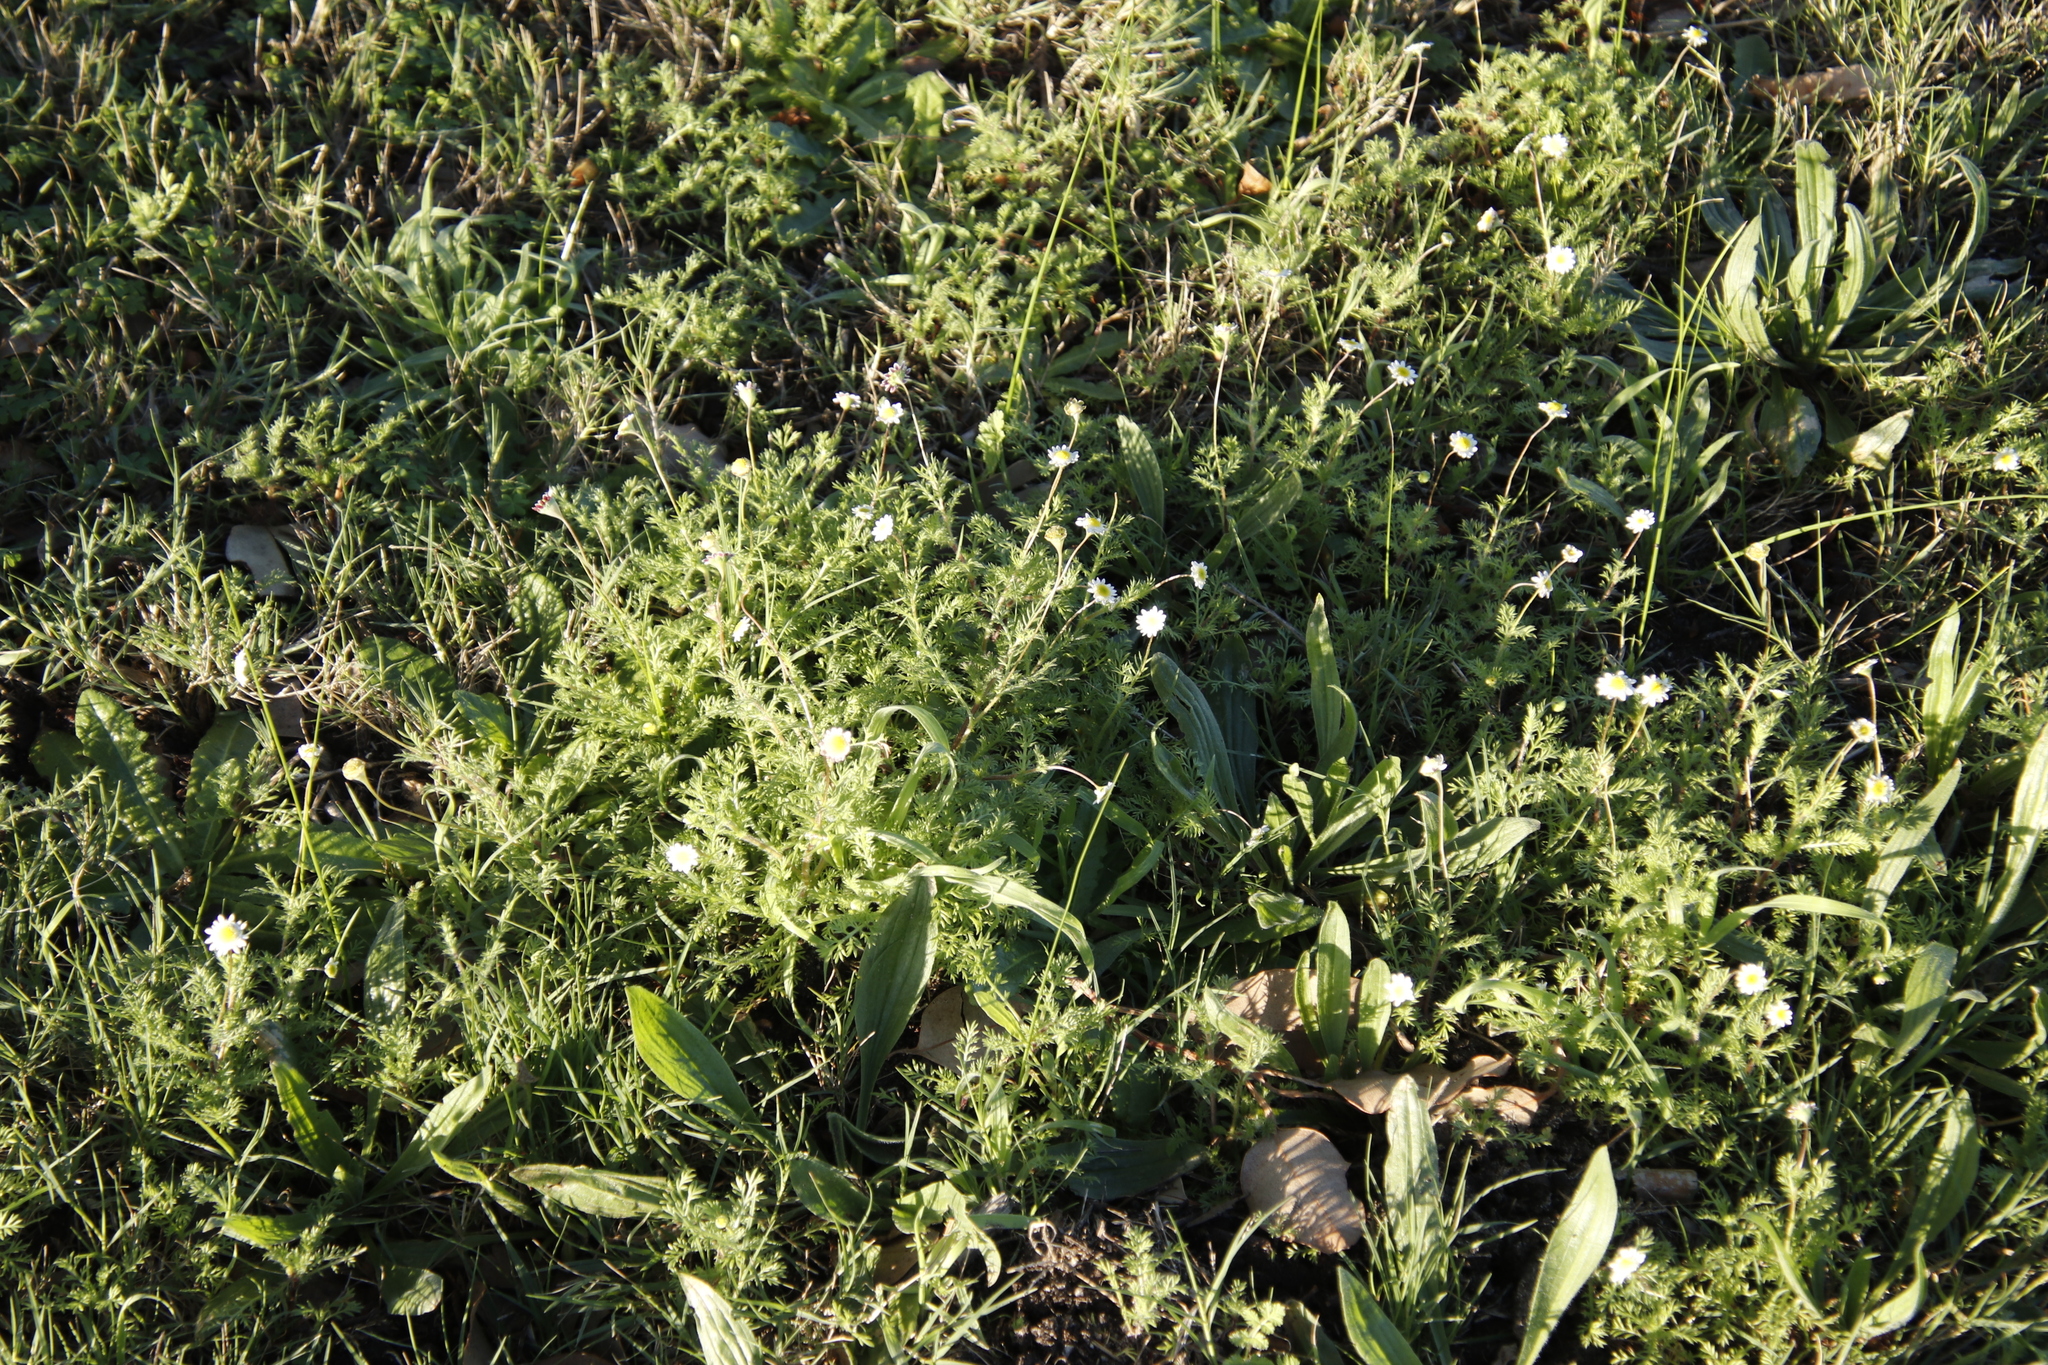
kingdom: Plantae
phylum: Tracheophyta
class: Magnoliopsida
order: Asterales
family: Asteraceae
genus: Cotula
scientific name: Cotula turbinata
